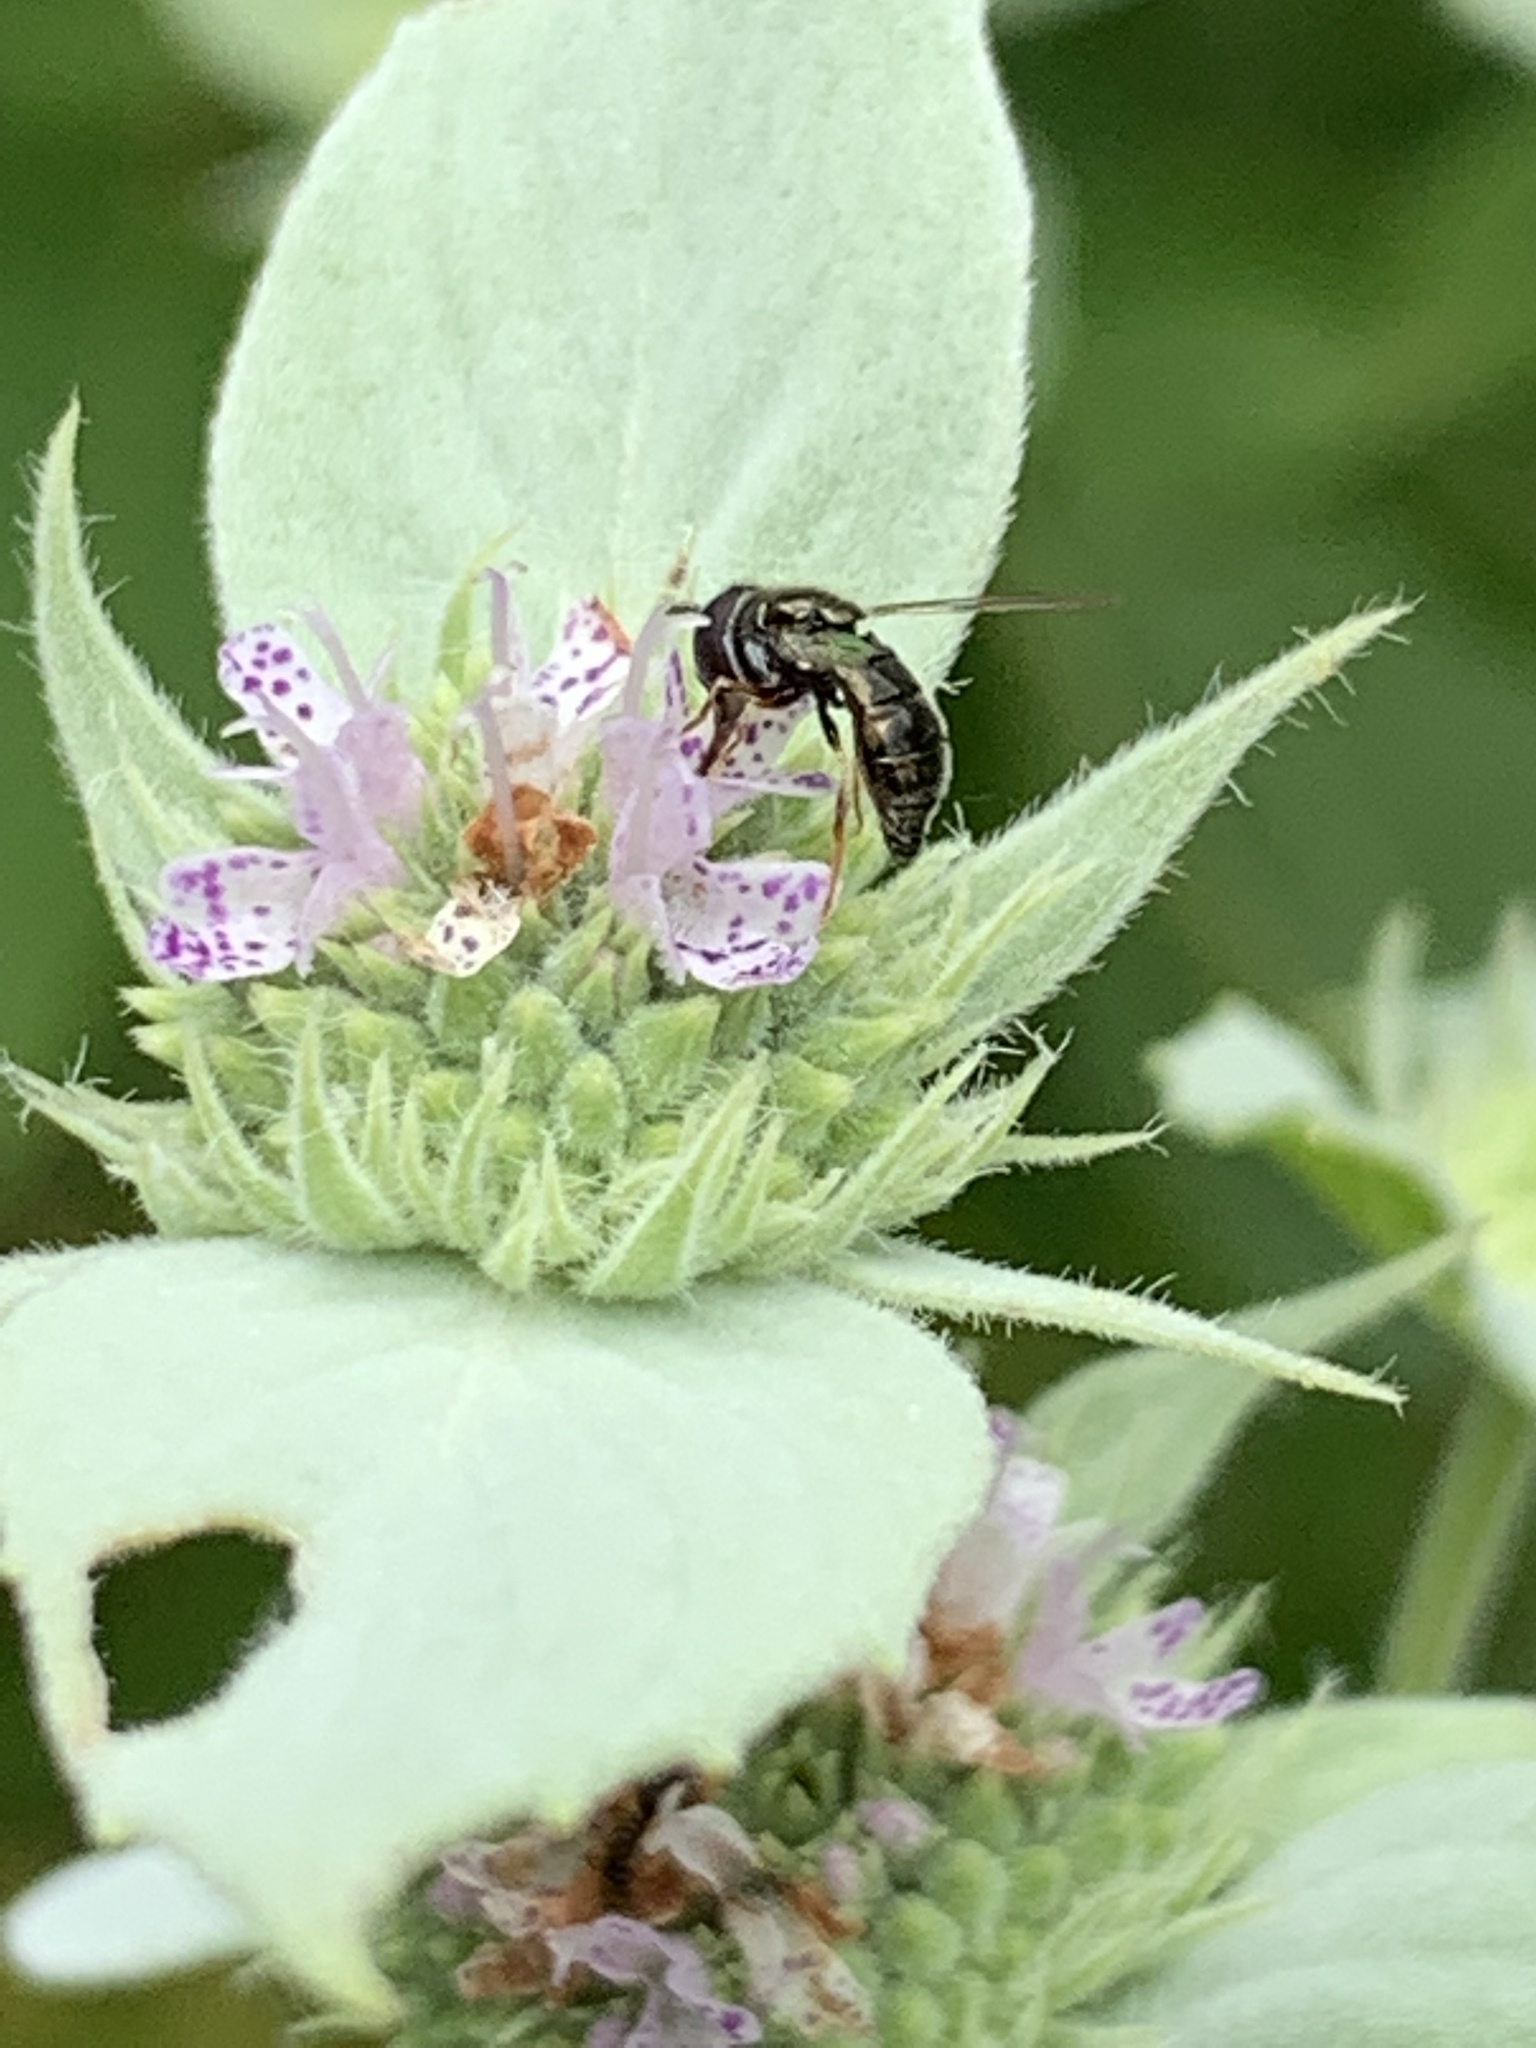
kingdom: Animalia
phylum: Arthropoda
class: Insecta
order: Hymenoptera
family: Apidae
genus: Zadontomerus
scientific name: Zadontomerus
